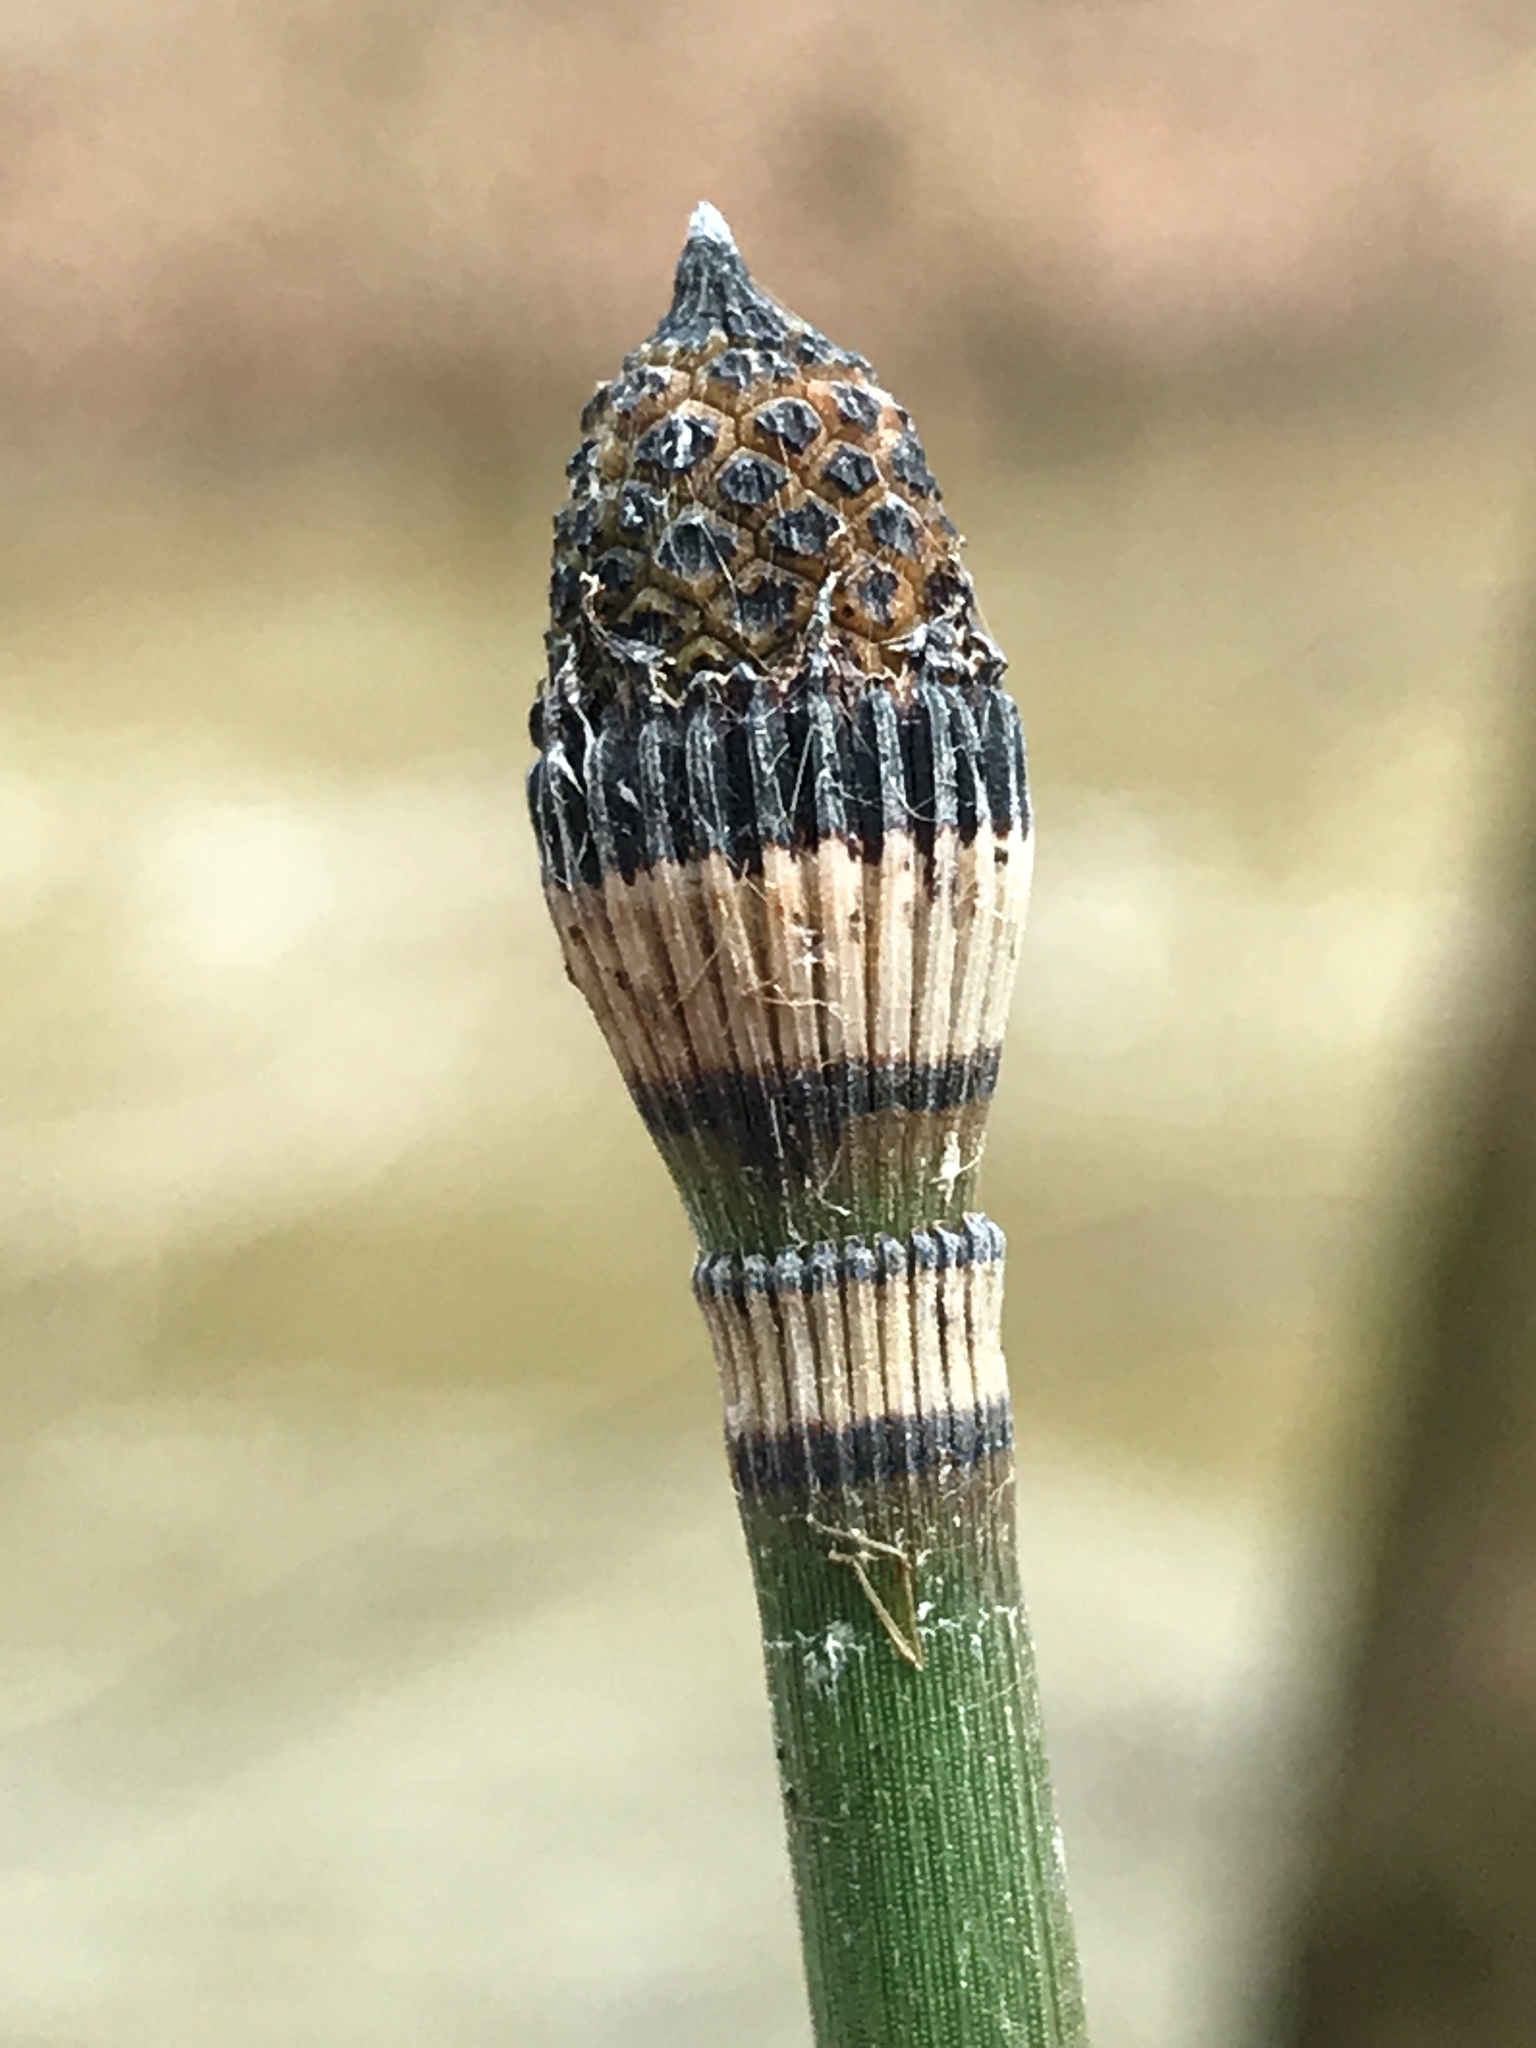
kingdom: Plantae
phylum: Tracheophyta
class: Polypodiopsida
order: Equisetales
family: Equisetaceae
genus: Equisetum
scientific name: Equisetum hyemale
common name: Rough horsetail
